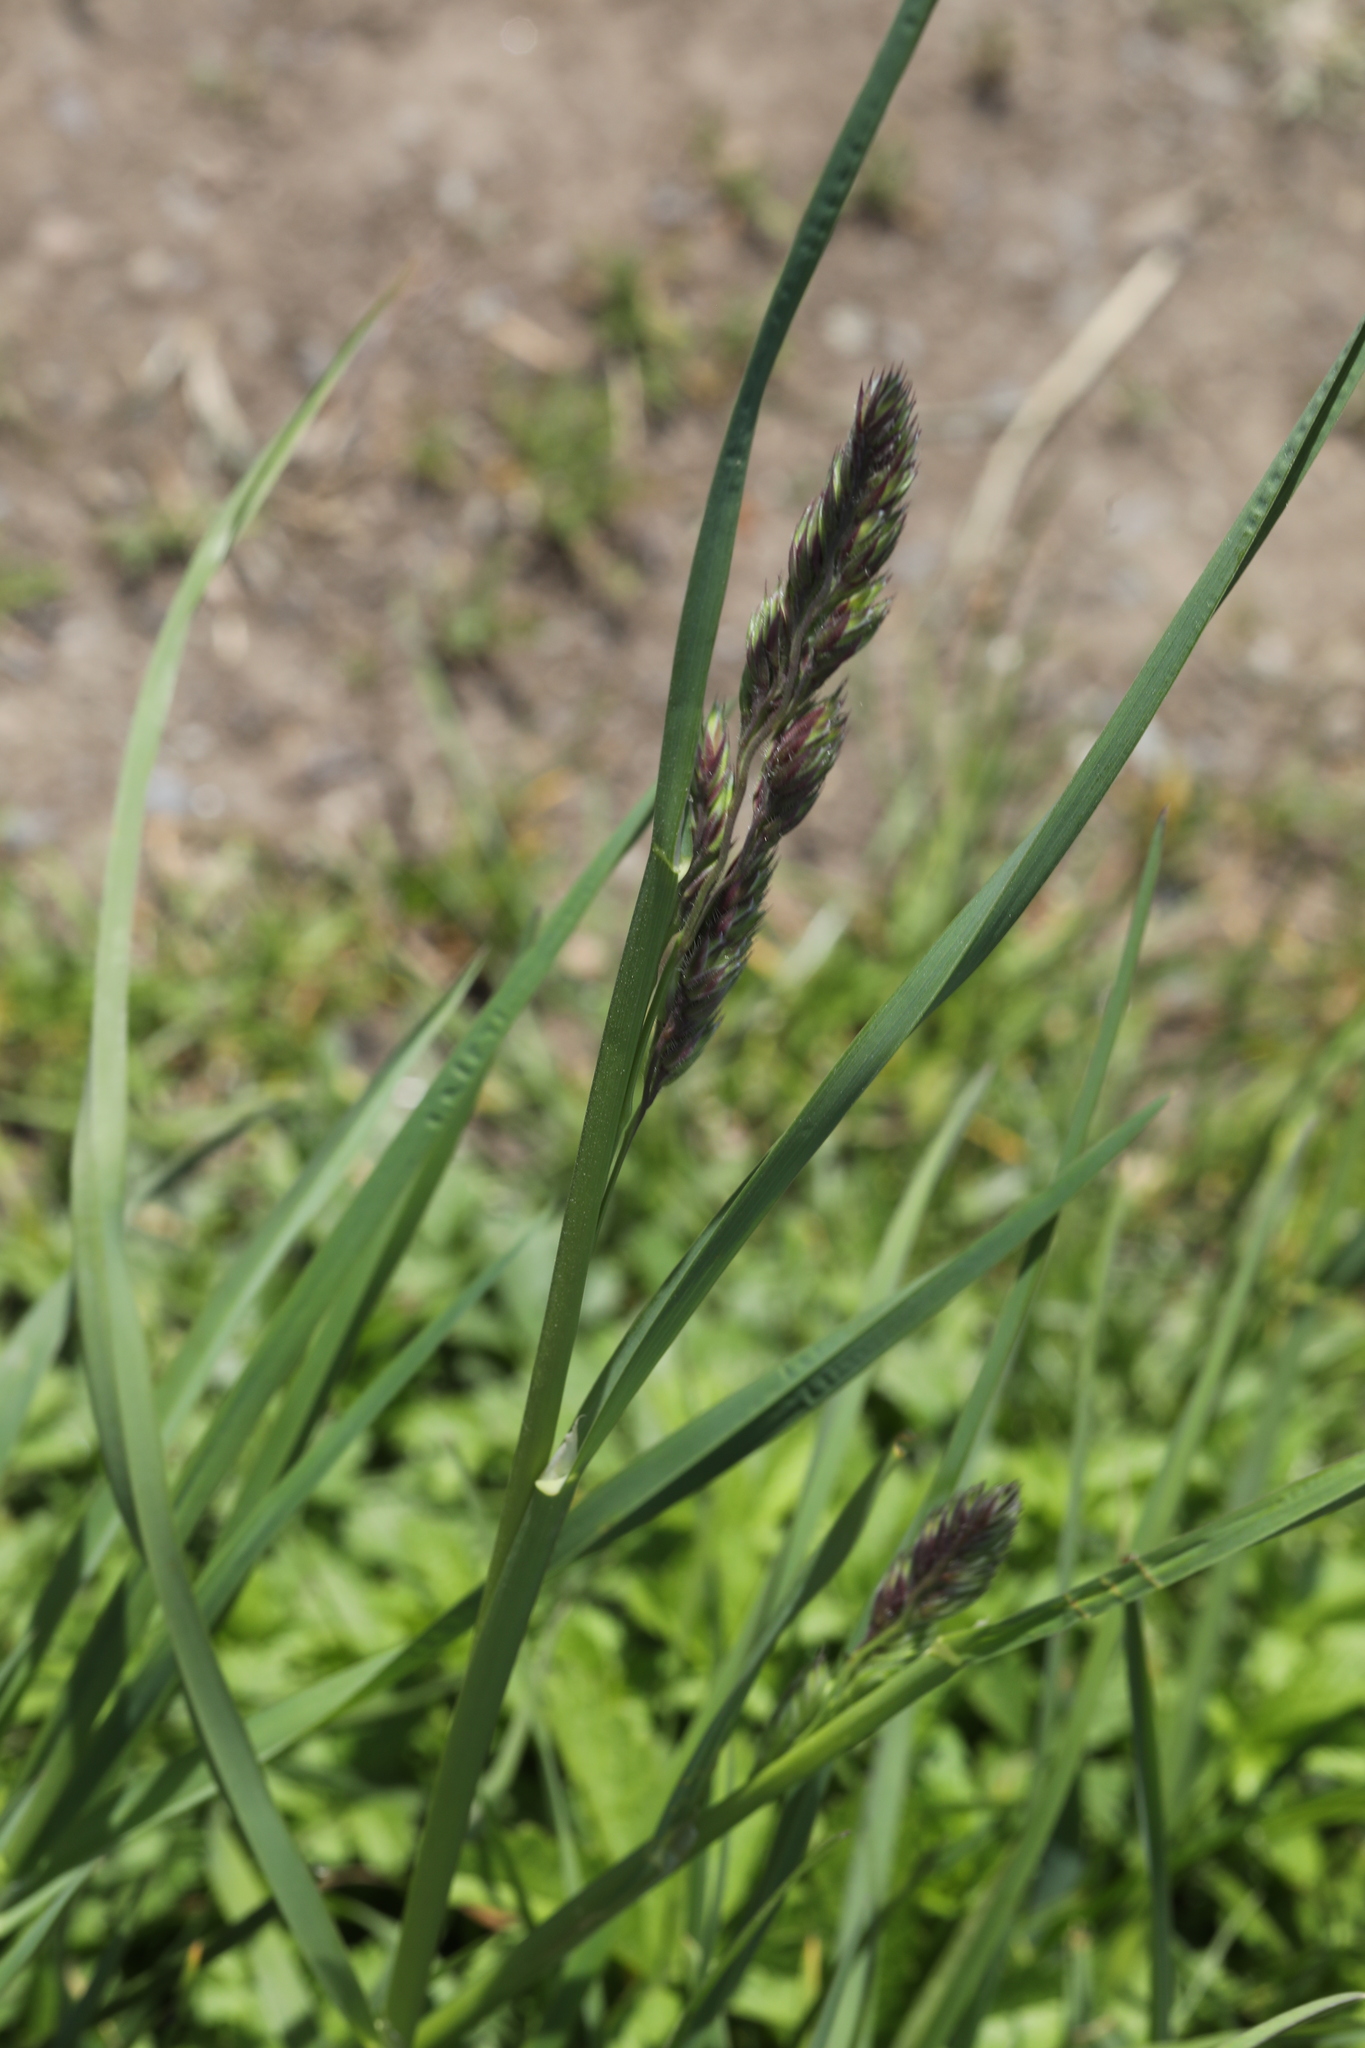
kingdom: Plantae
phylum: Tracheophyta
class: Liliopsida
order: Poales
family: Poaceae
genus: Dactylis
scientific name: Dactylis glomerata
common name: Orchardgrass
